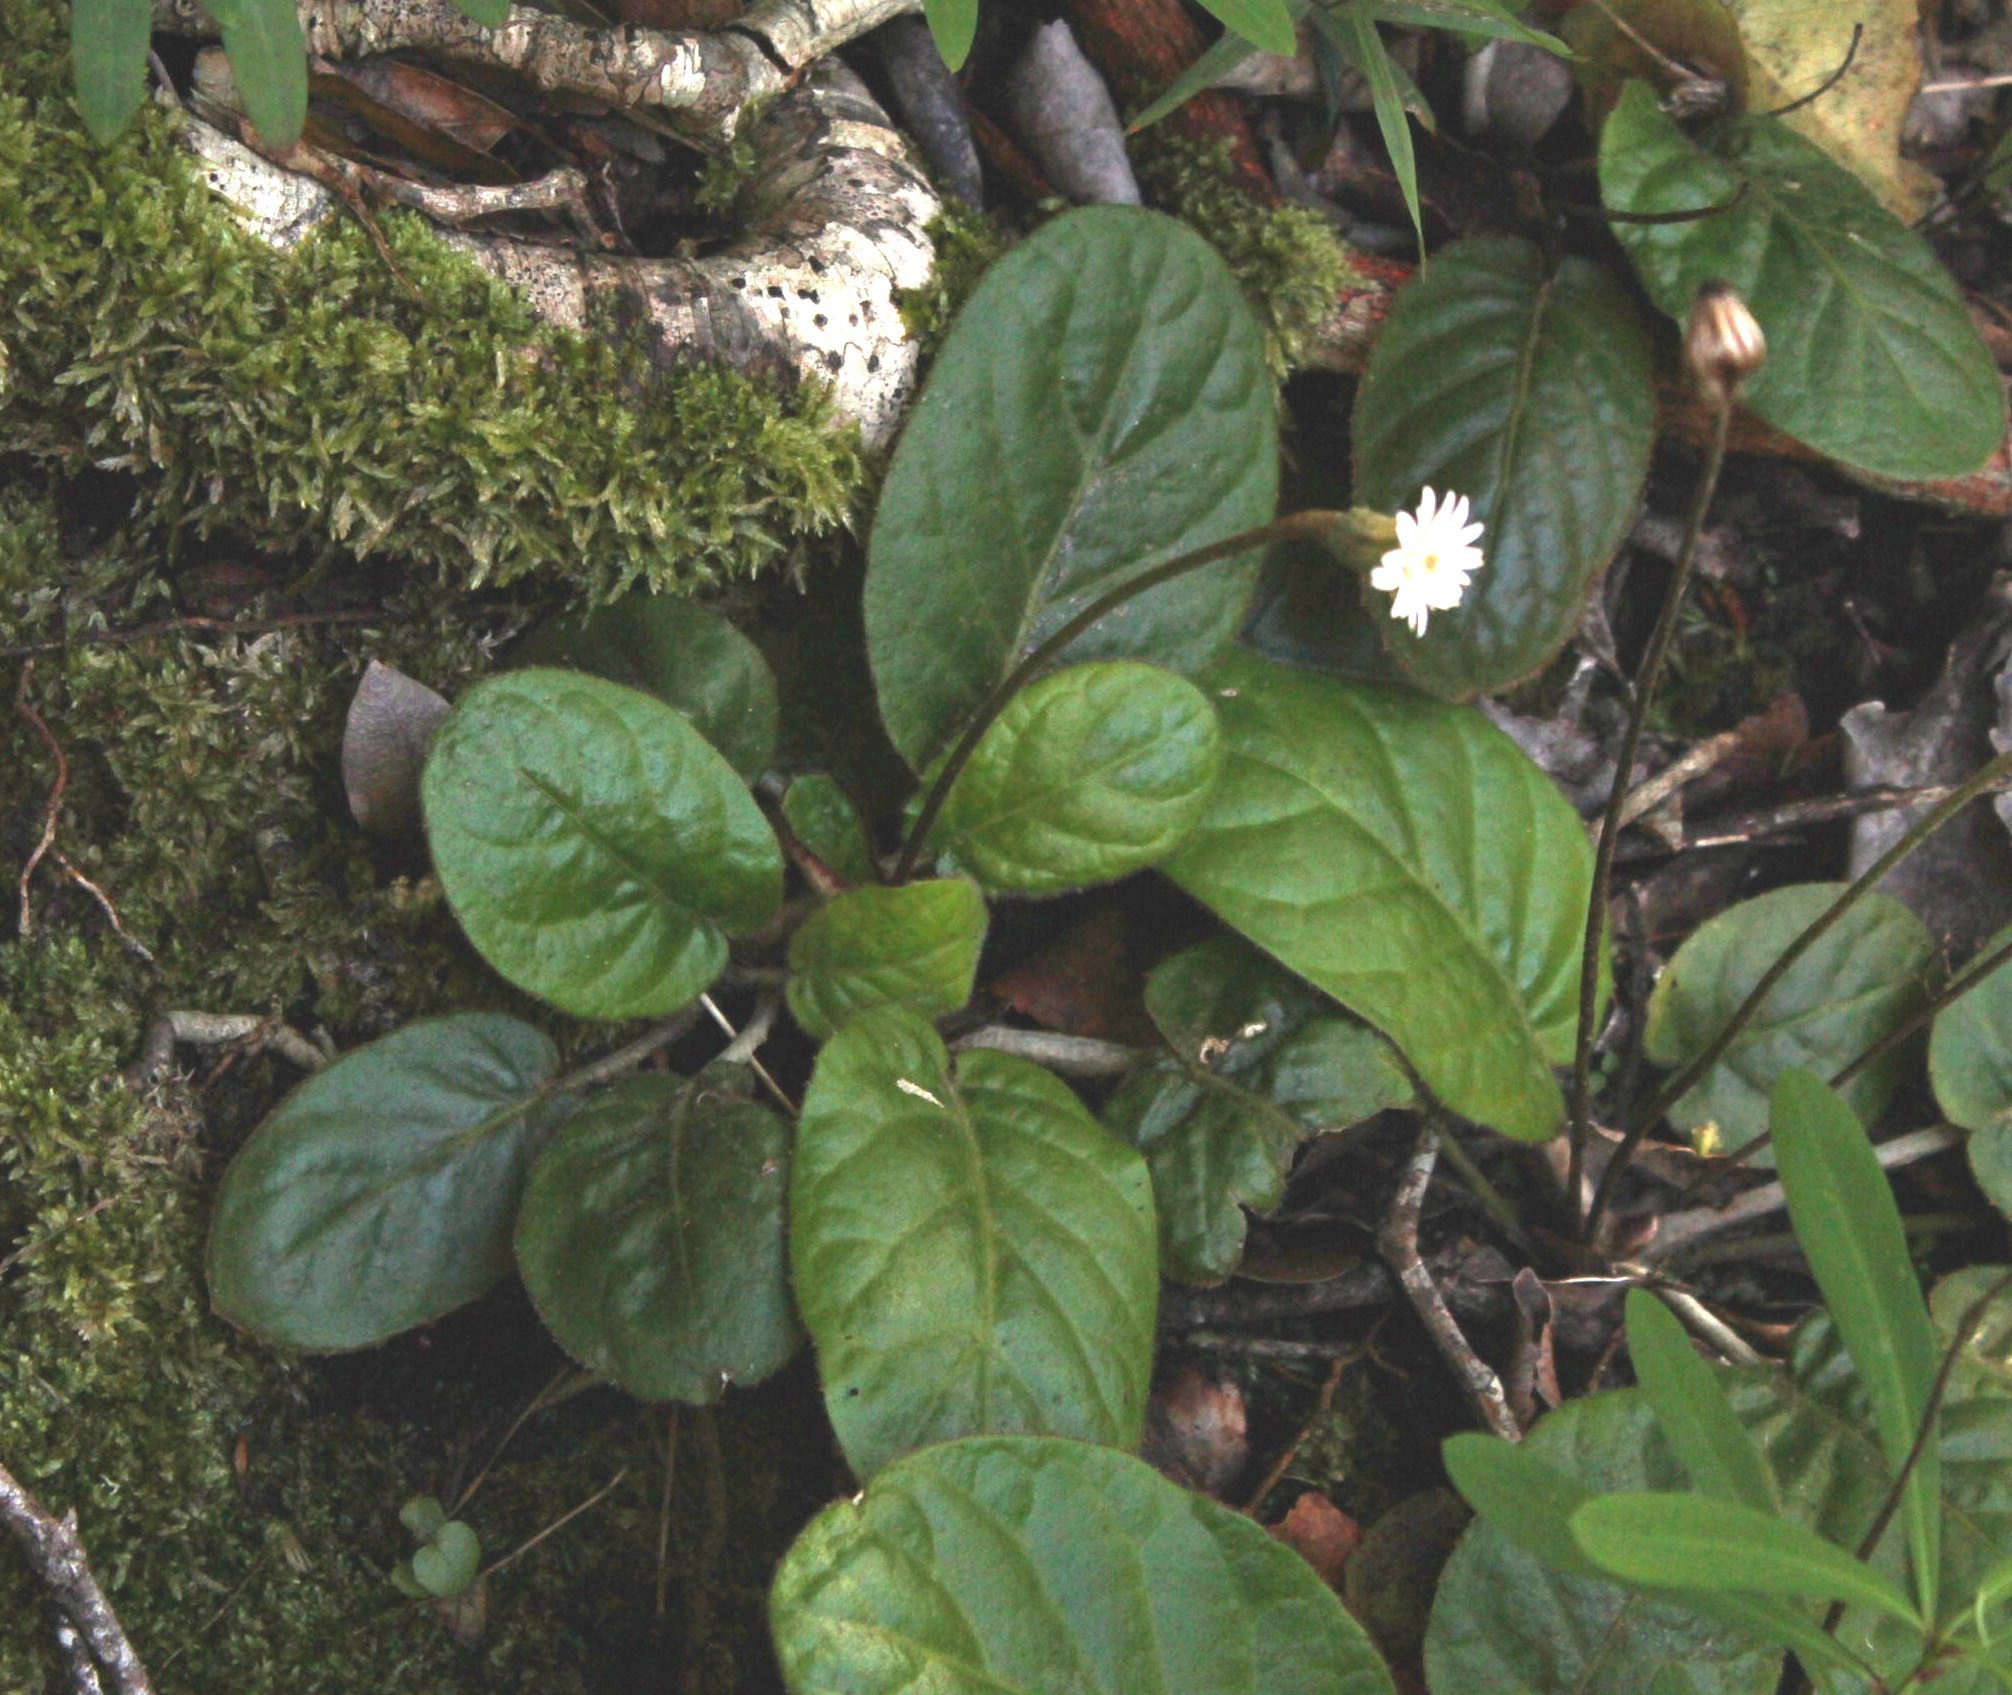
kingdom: Plantae
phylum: Tracheophyta
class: Magnoliopsida
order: Asterales
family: Asteraceae
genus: Piloselloides
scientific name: Piloselloides cordata
